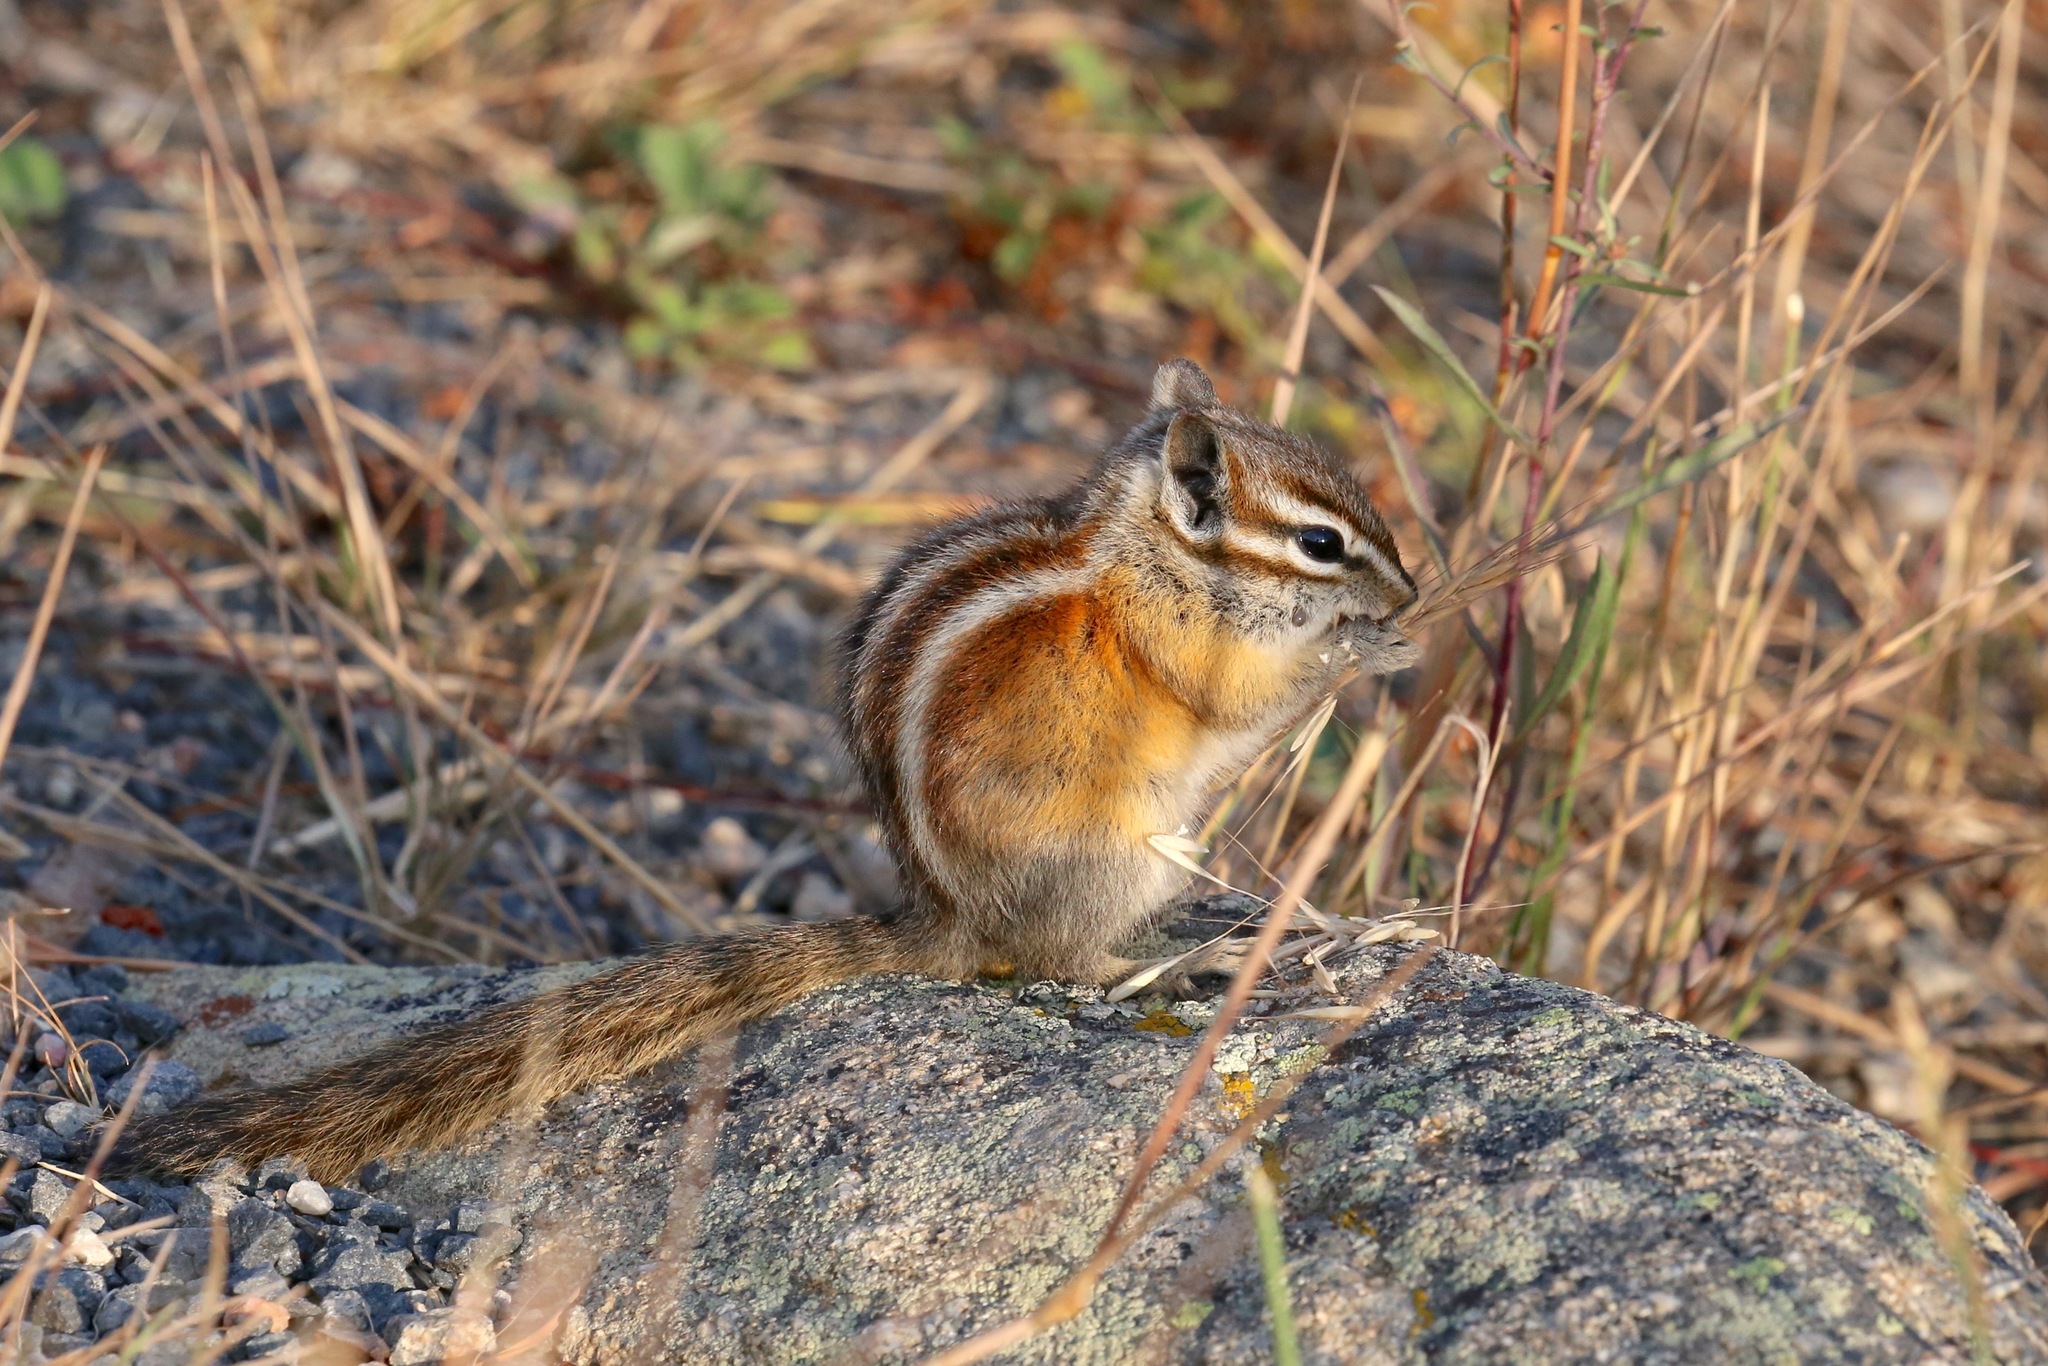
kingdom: Animalia
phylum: Chordata
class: Mammalia
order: Rodentia
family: Sciuridae
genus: Tamias
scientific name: Tamias minimus
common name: Least chipmunk
